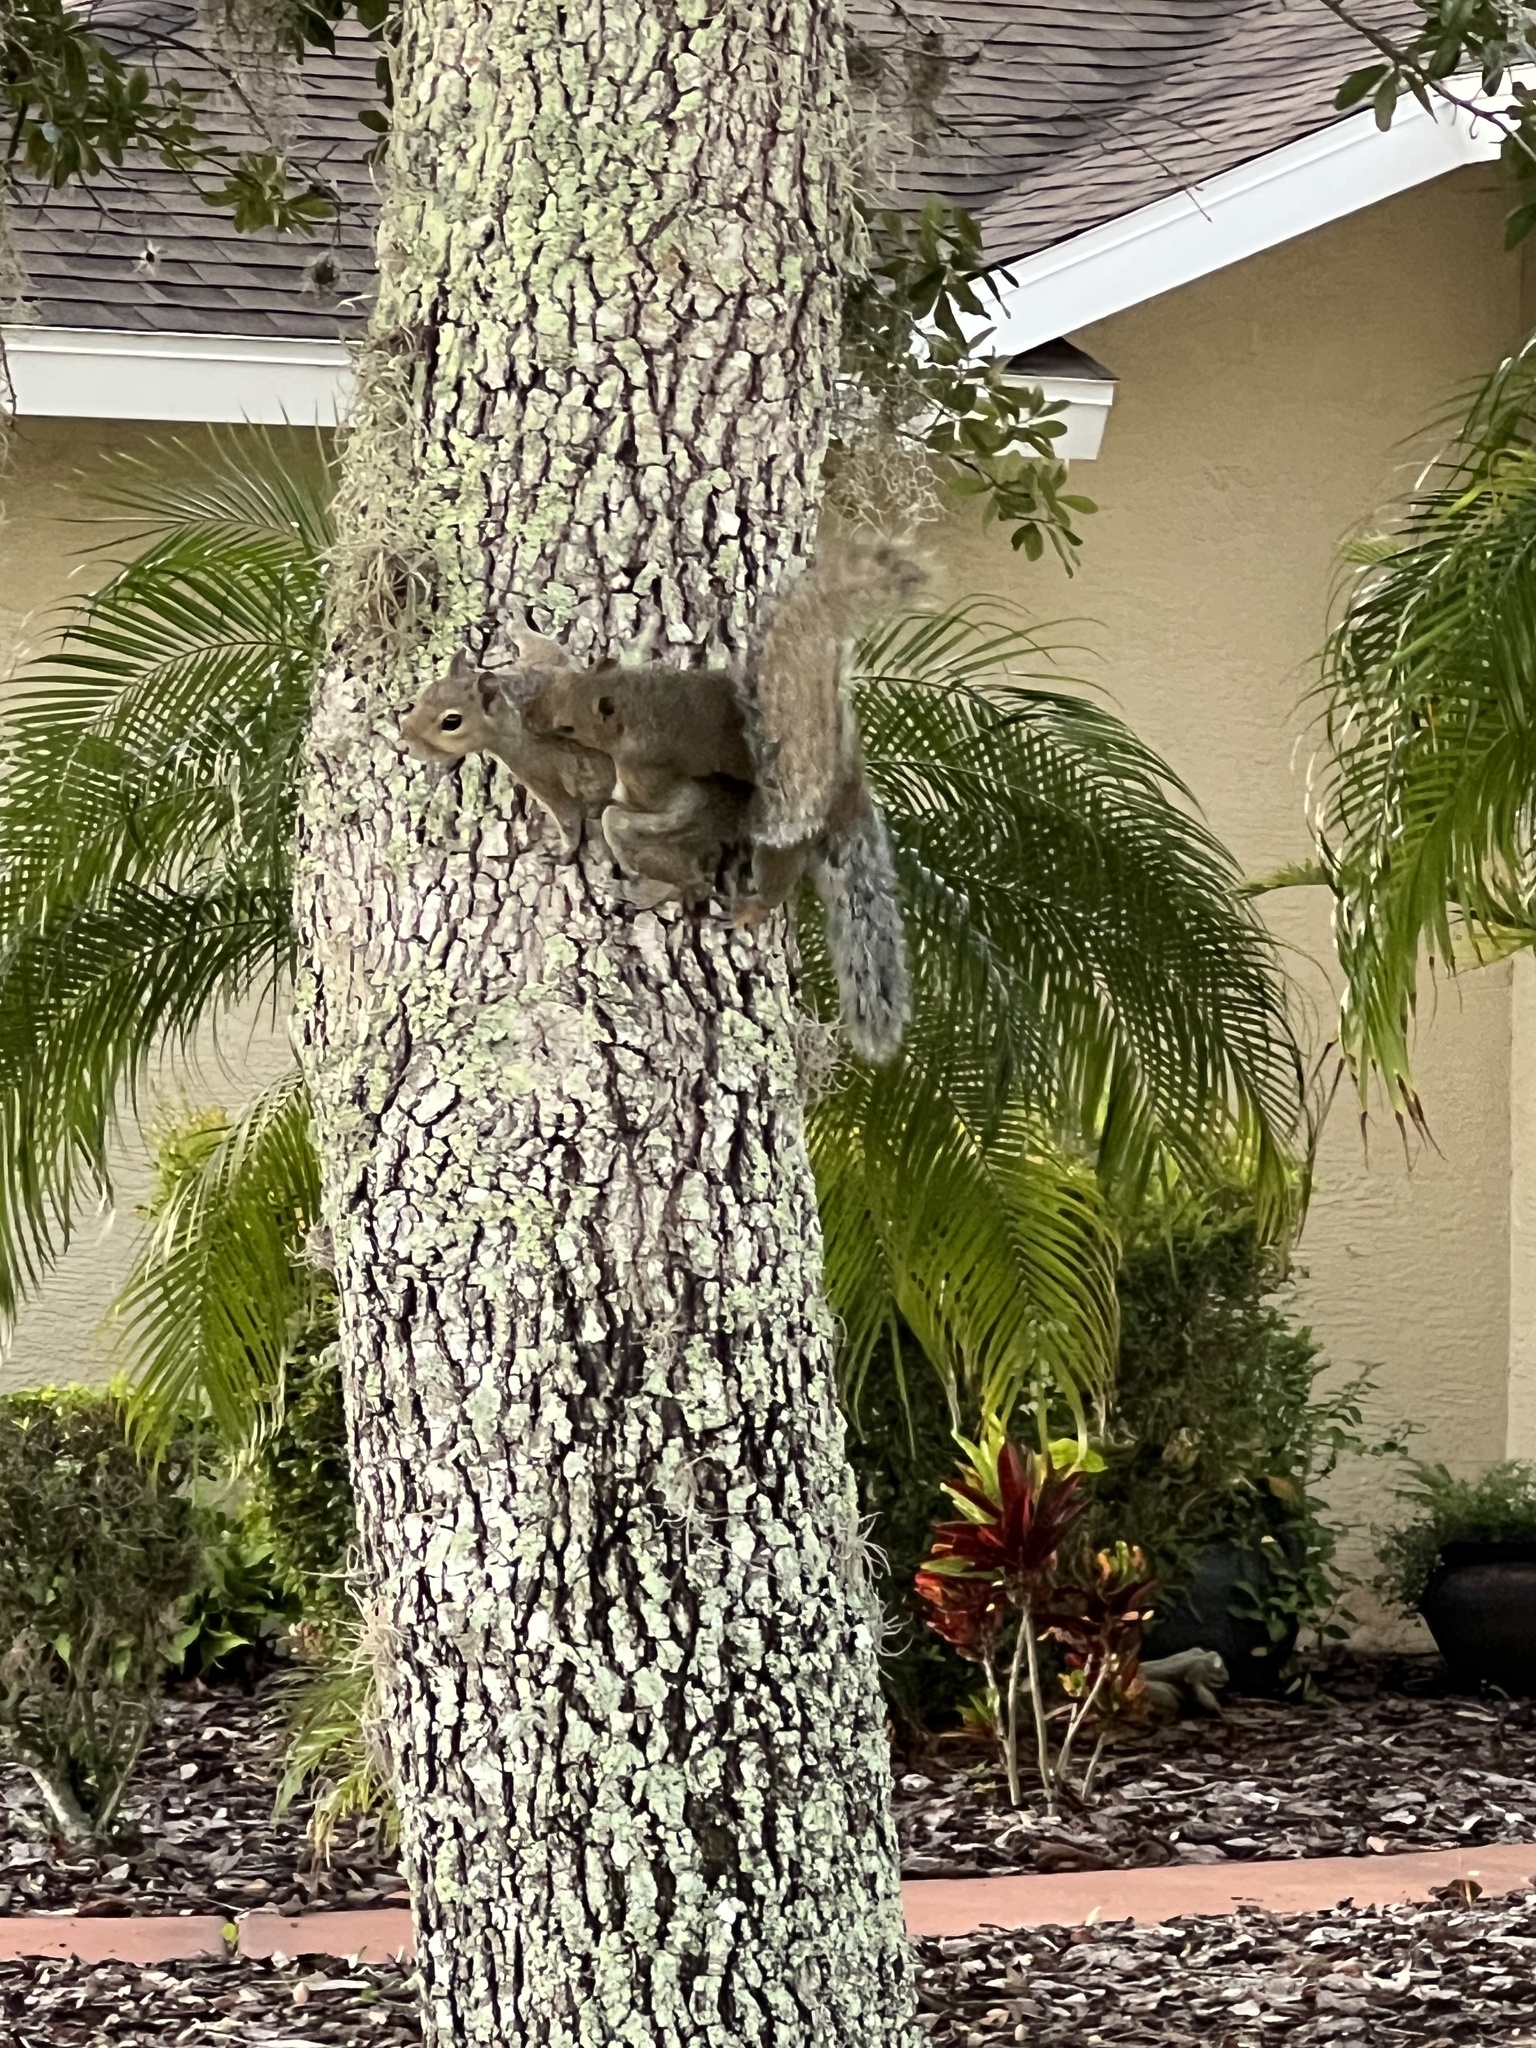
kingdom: Animalia
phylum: Chordata
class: Mammalia
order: Rodentia
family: Sciuridae
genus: Sciurus
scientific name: Sciurus carolinensis
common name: Eastern gray squirrel
